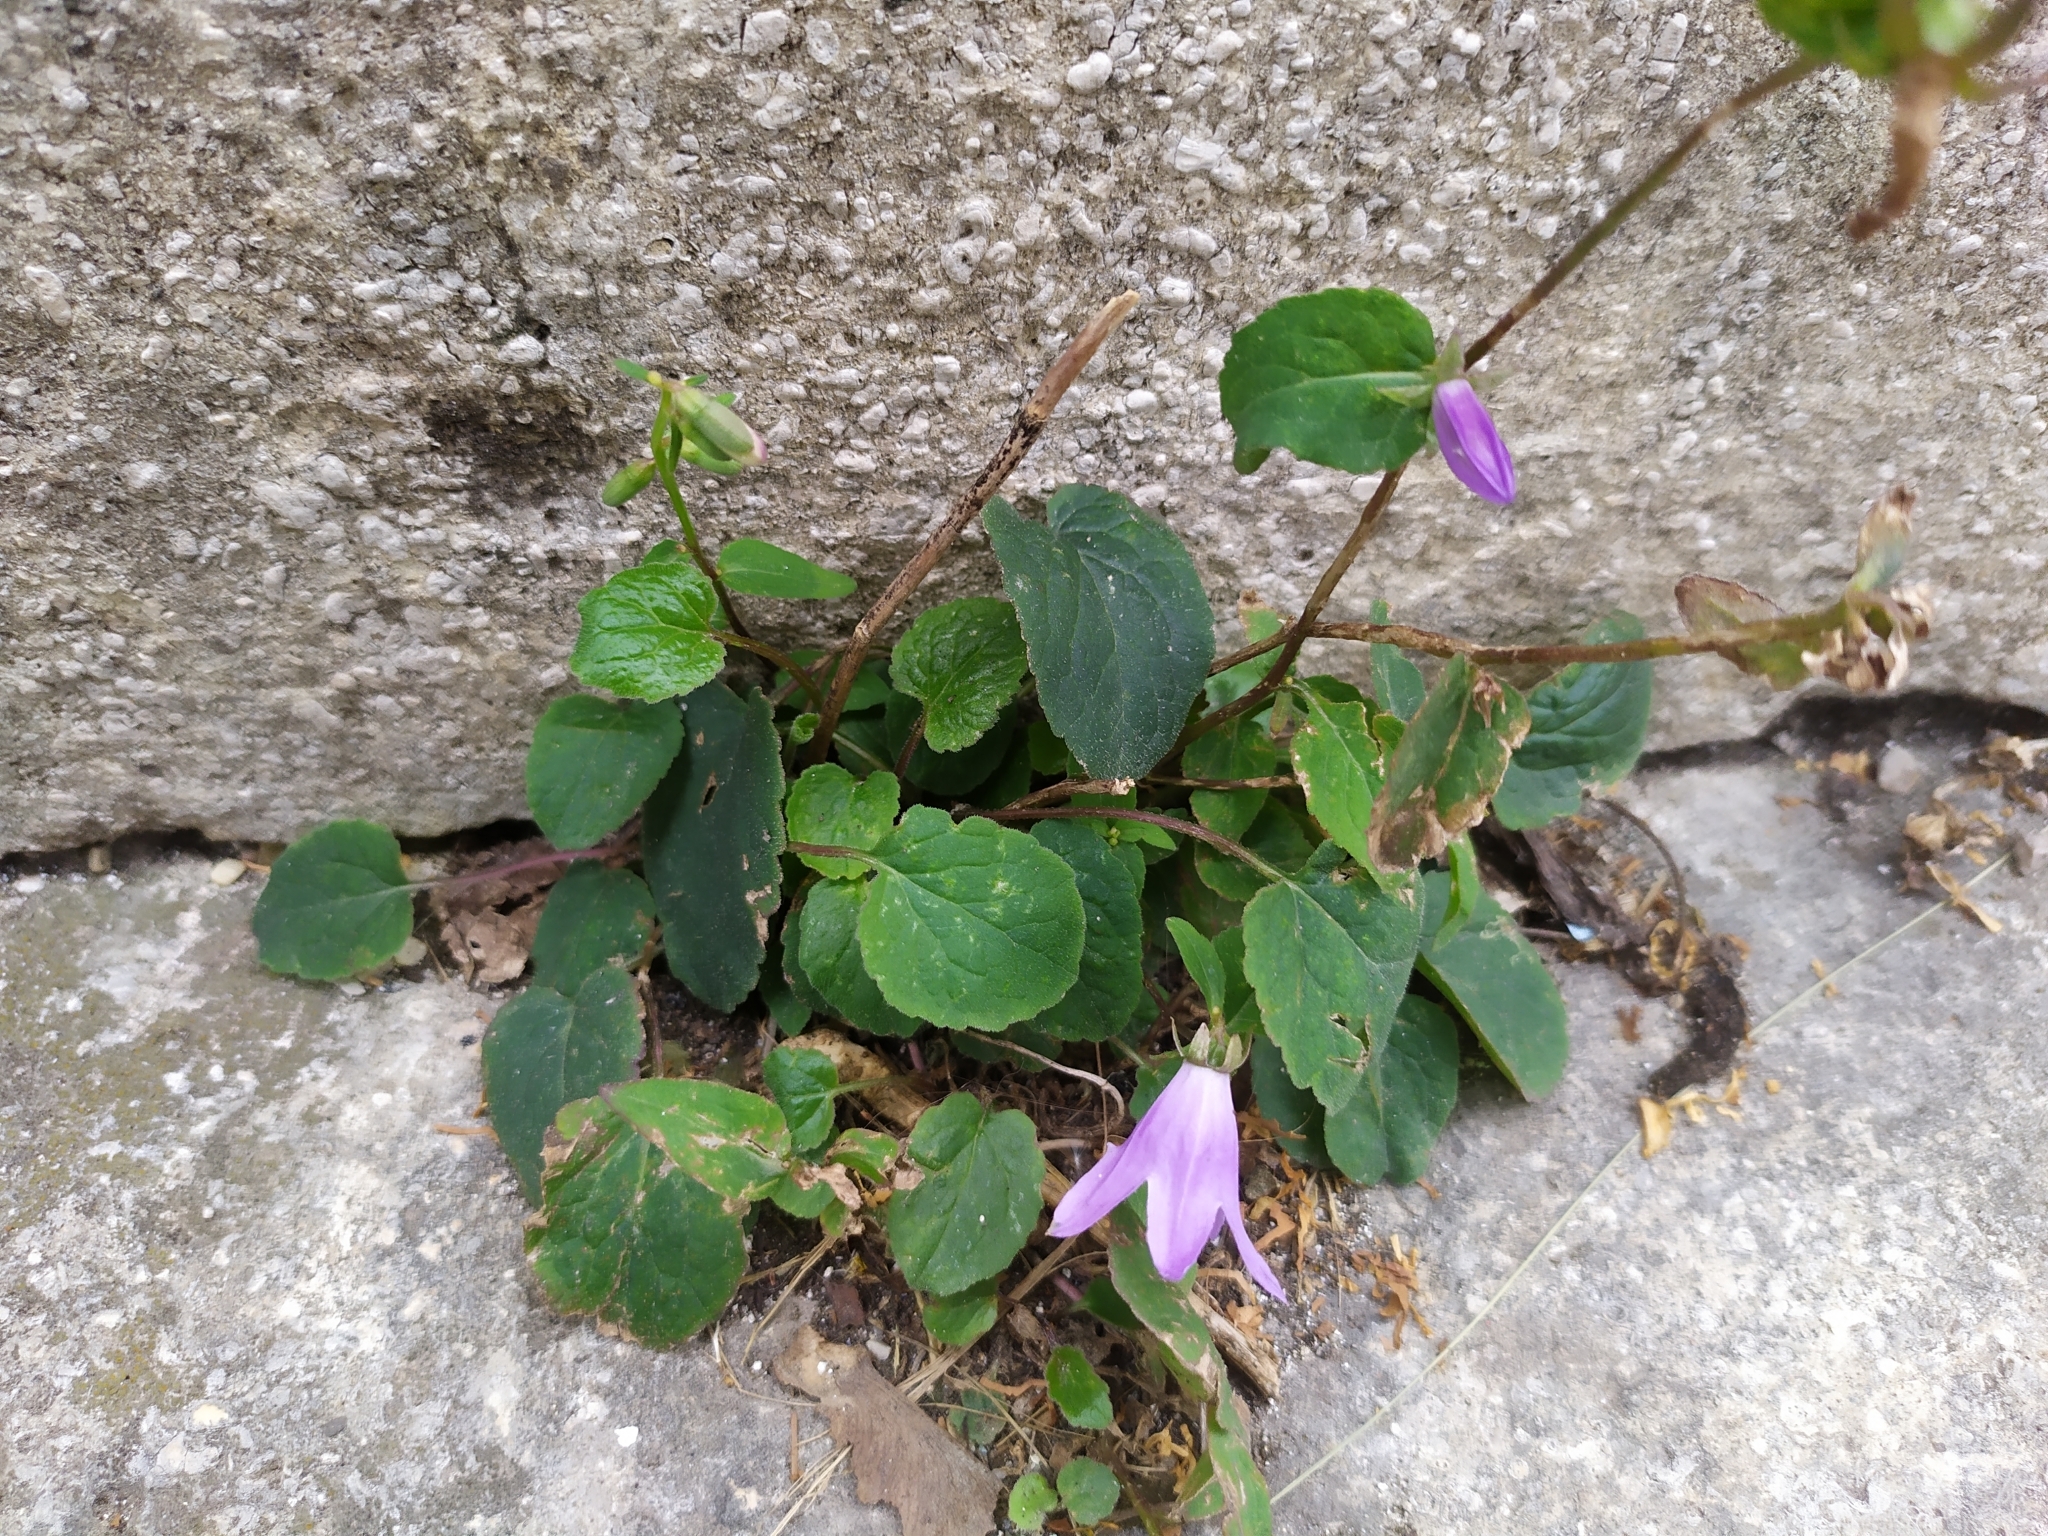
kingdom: Plantae
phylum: Tracheophyta
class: Magnoliopsida
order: Asterales
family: Campanulaceae
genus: Campanula
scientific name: Campanula rapunculoides
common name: Creeping bellflower
